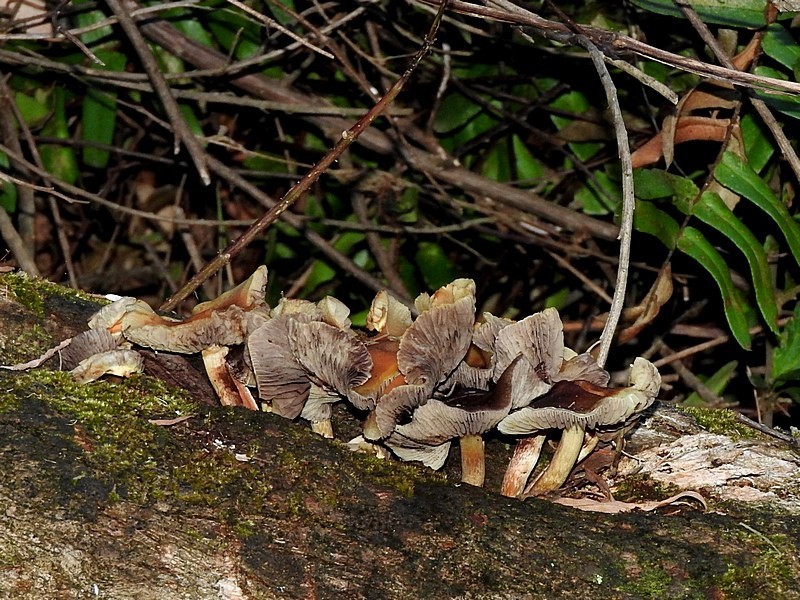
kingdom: Fungi
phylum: Basidiomycota
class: Agaricomycetes
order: Agaricales
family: Strophariaceae
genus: Hypholoma
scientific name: Hypholoma fasciculare
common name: Sulphur tuft
